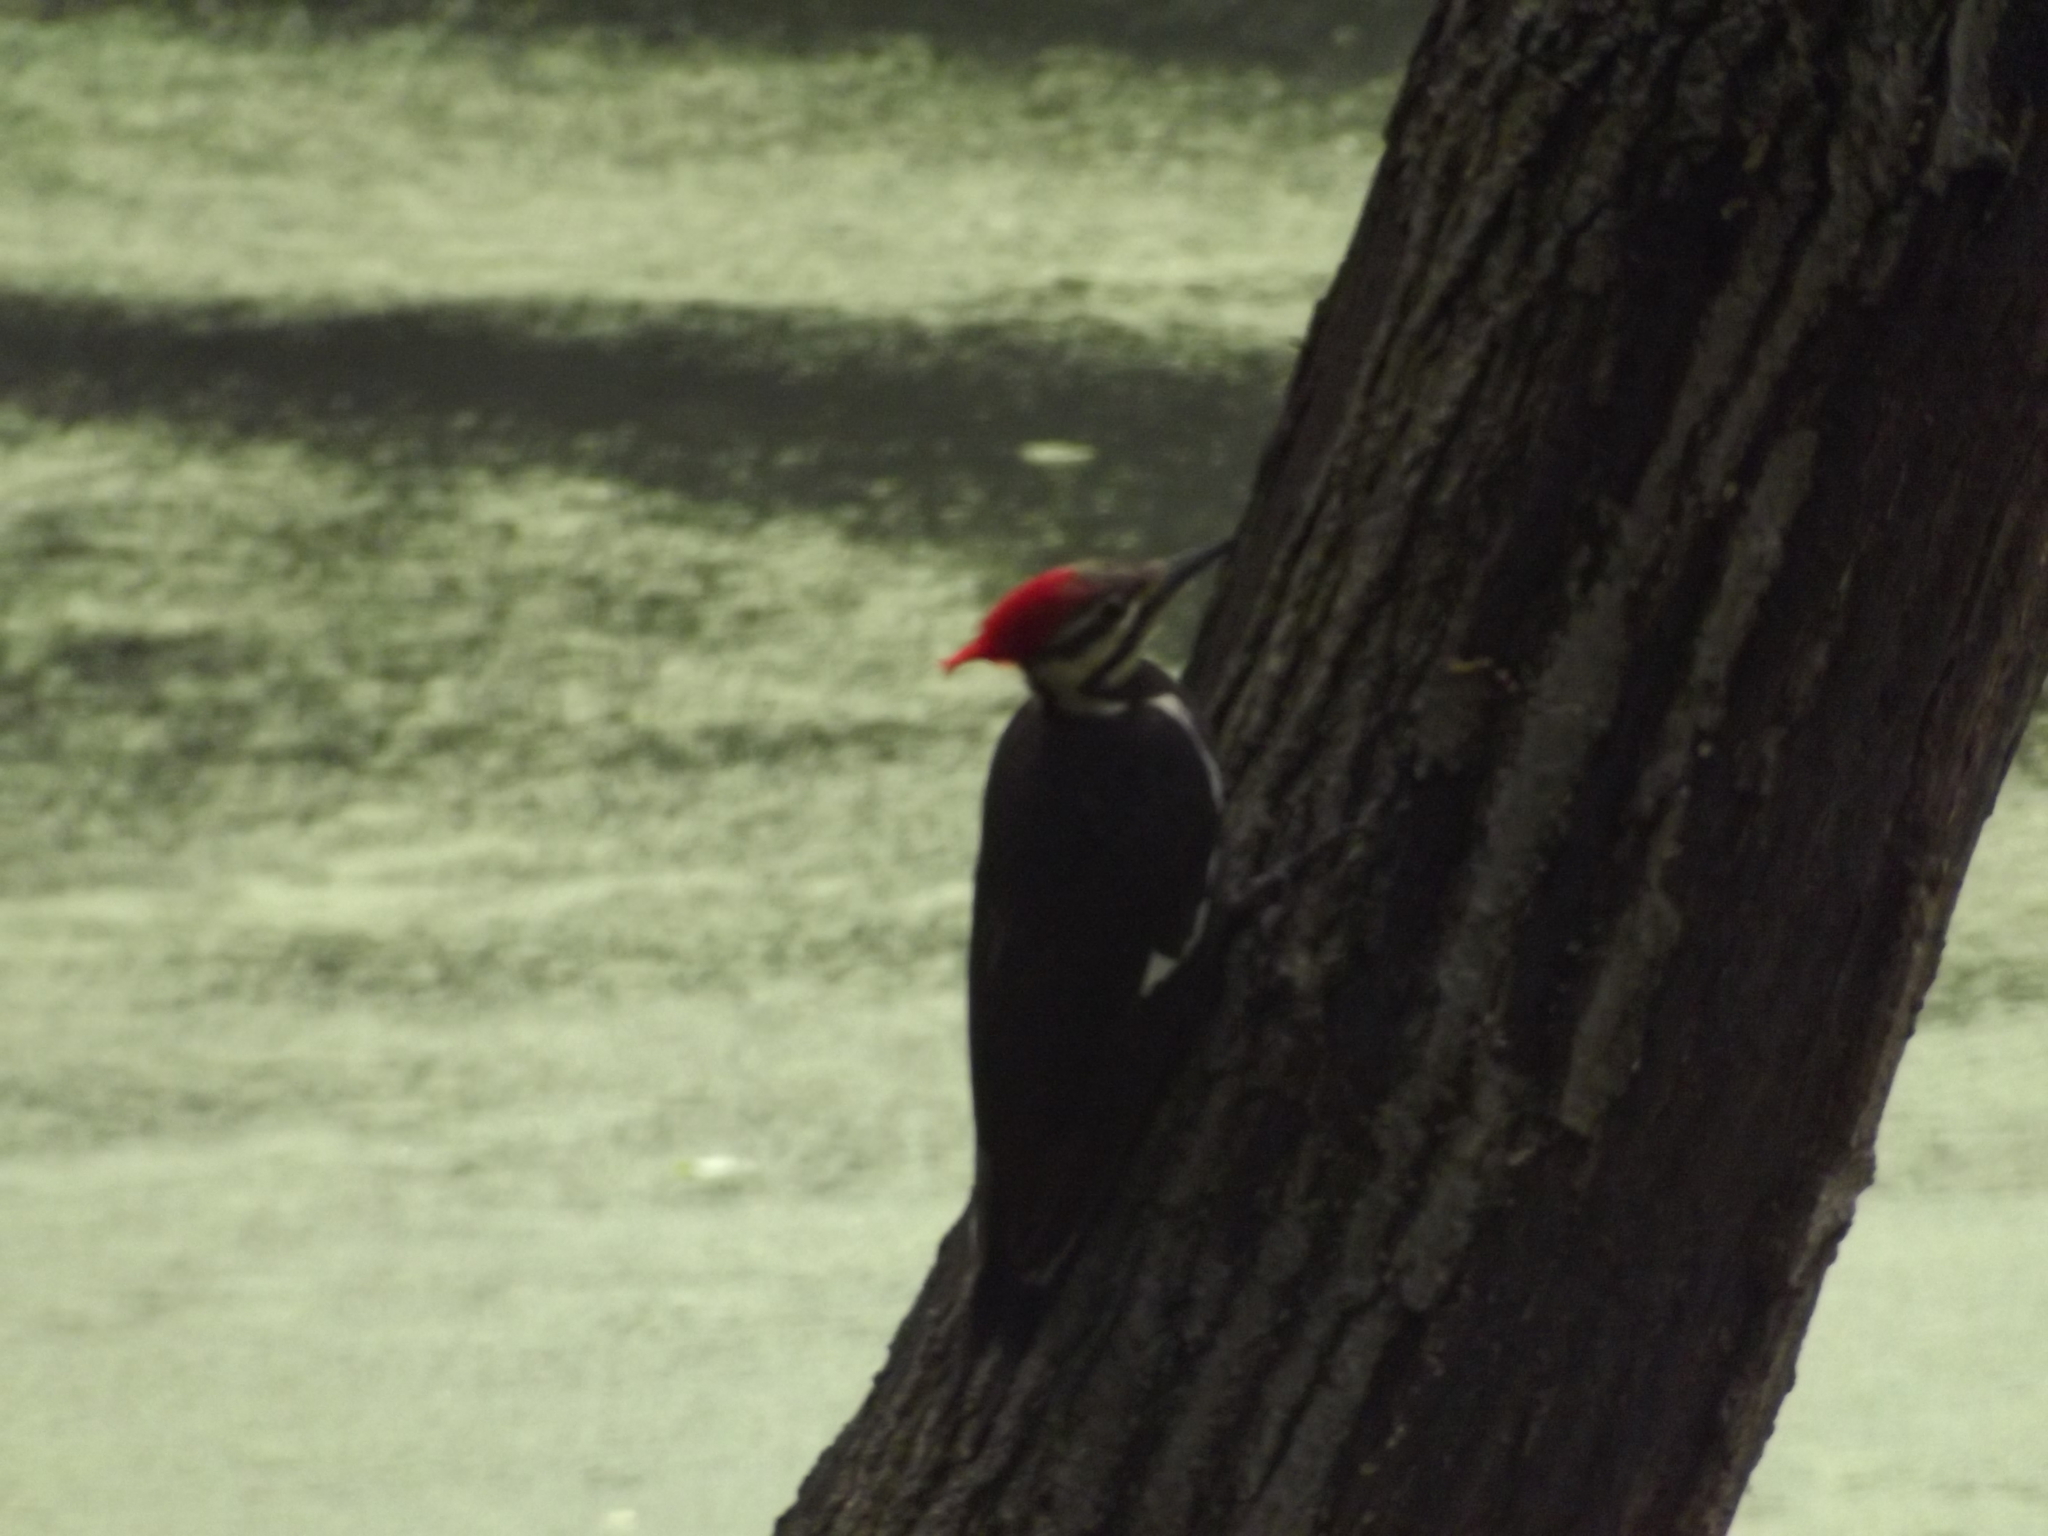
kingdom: Animalia
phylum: Chordata
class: Aves
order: Piciformes
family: Picidae
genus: Dryocopus
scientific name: Dryocopus pileatus
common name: Pileated woodpecker
